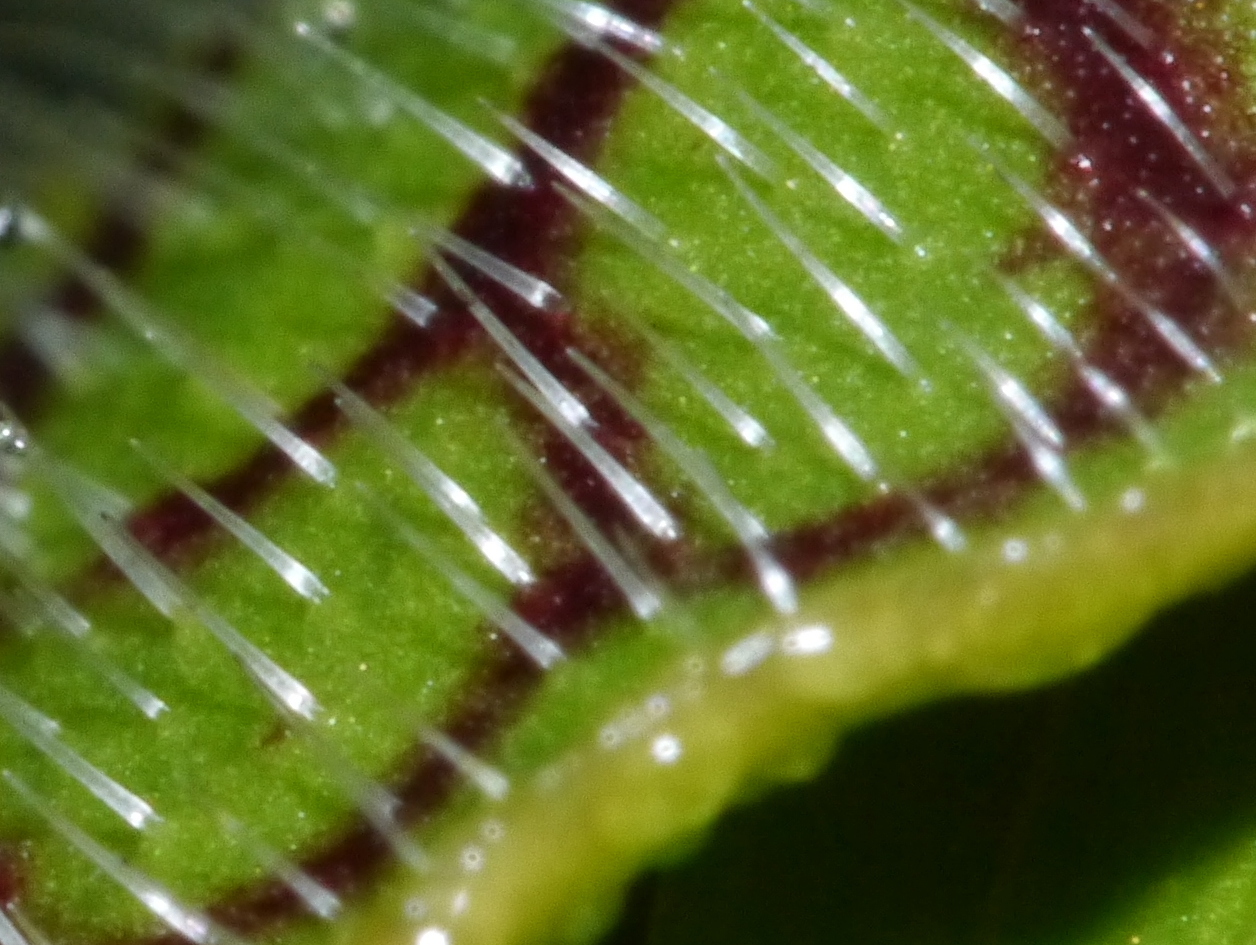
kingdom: Plantae
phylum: Tracheophyta
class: Magnoliopsida
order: Ericales
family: Sarraceniaceae
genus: Sarracenia
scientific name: Sarracenia purpurea
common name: Pitcherplant
